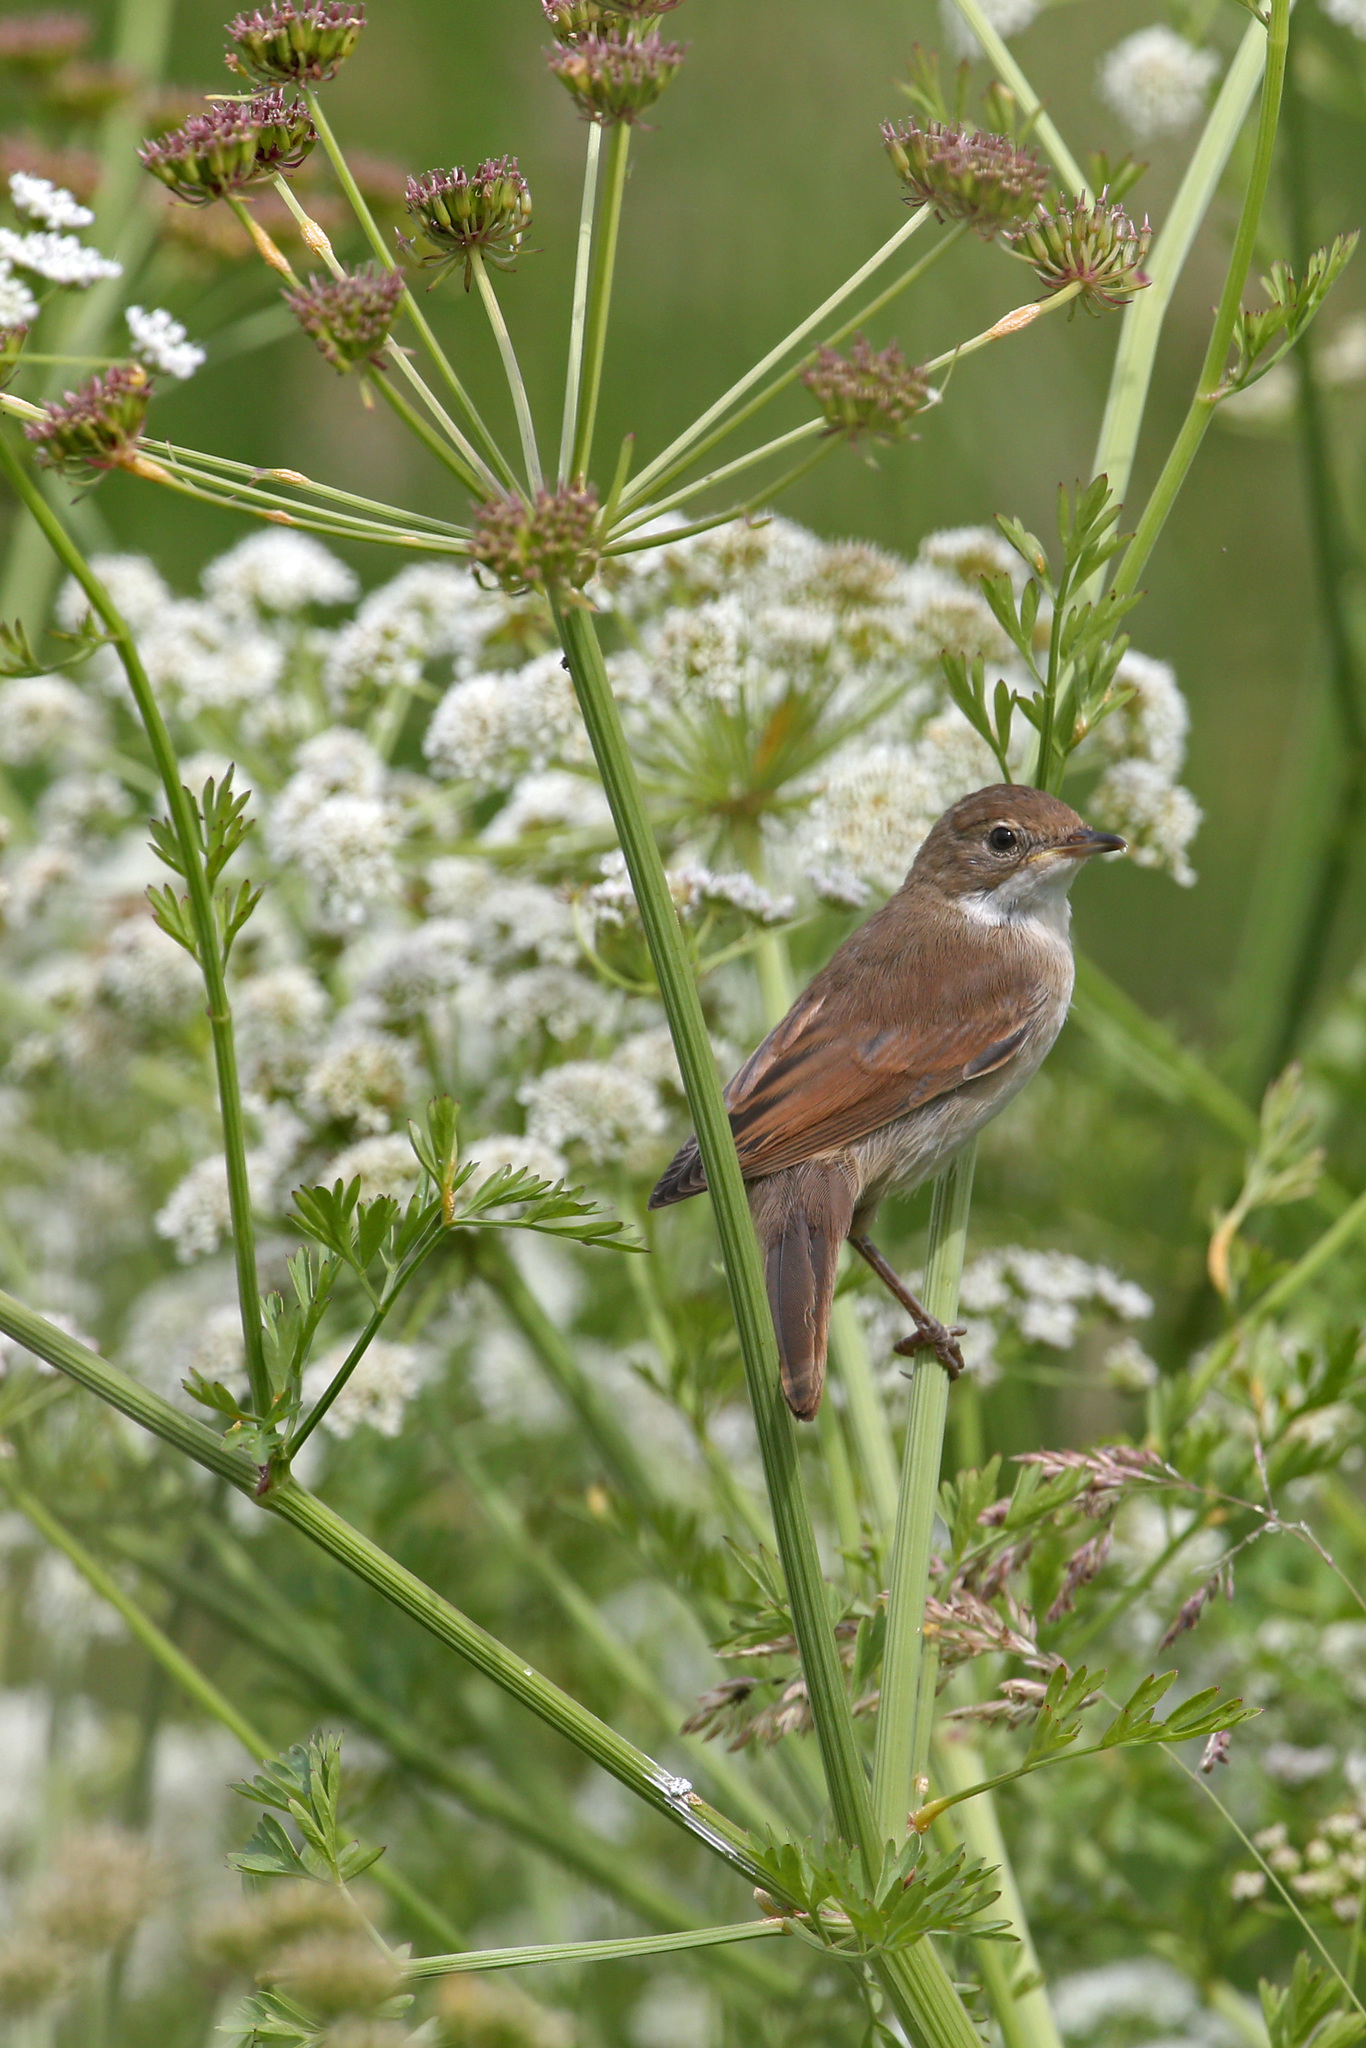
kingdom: Animalia
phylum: Chordata
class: Aves
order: Passeriformes
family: Sylviidae
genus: Sylvia
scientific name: Sylvia communis
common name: Common whitethroat
